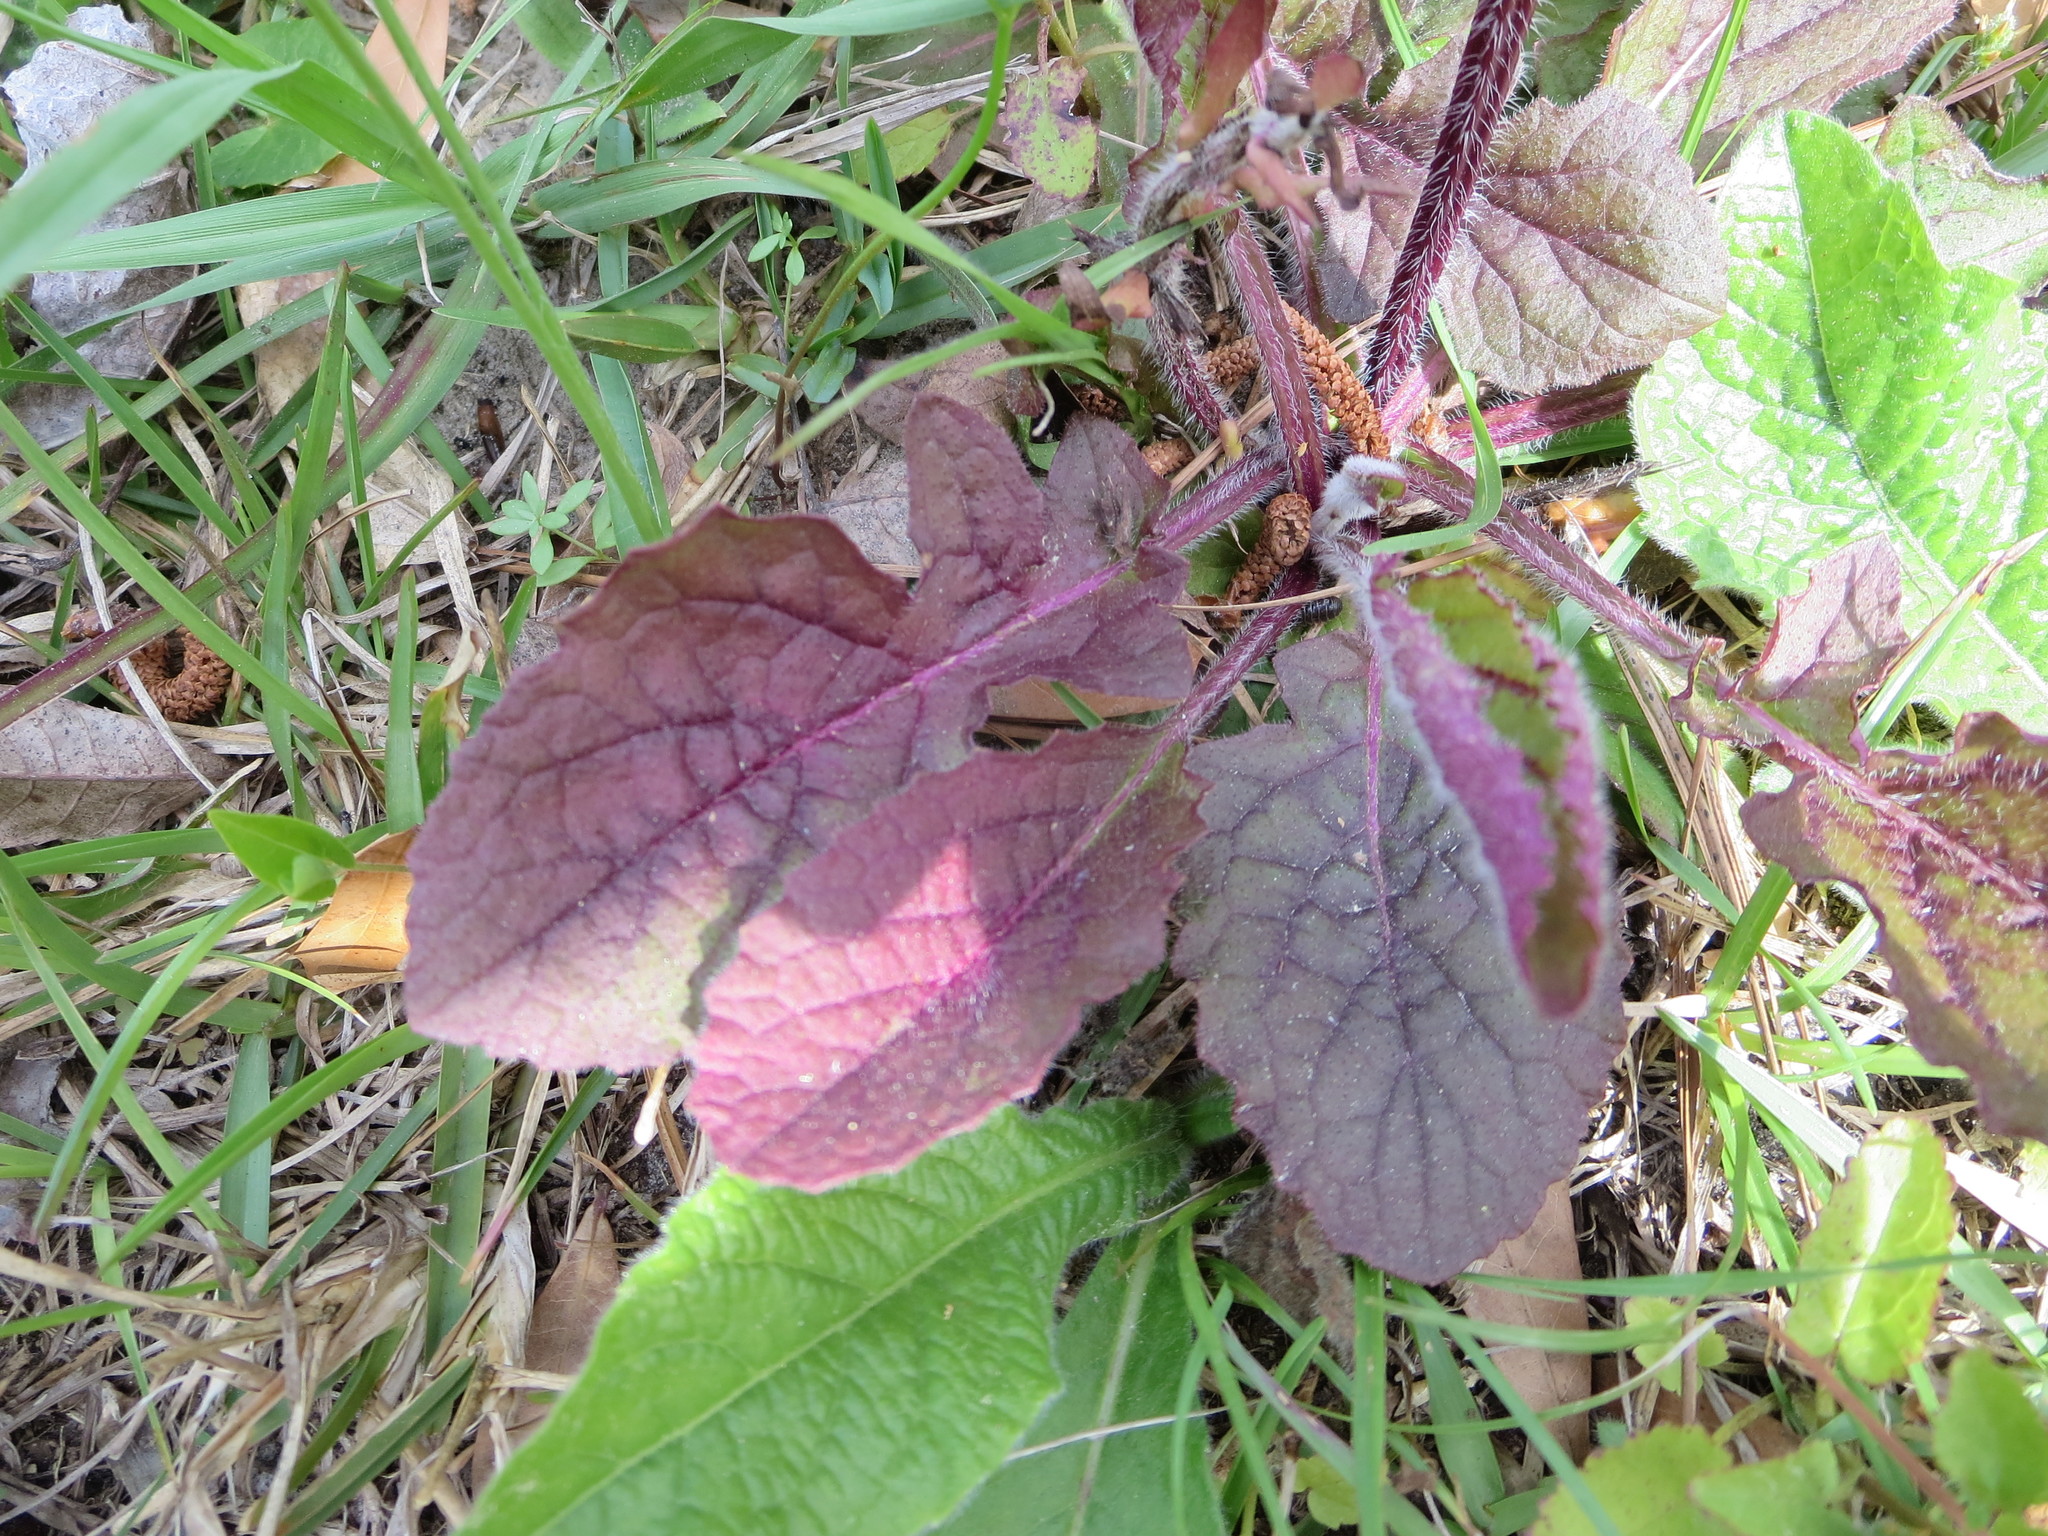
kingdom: Plantae
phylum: Tracheophyta
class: Magnoliopsida
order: Lamiales
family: Lamiaceae
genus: Salvia
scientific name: Salvia lyrata
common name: Cancerweed
